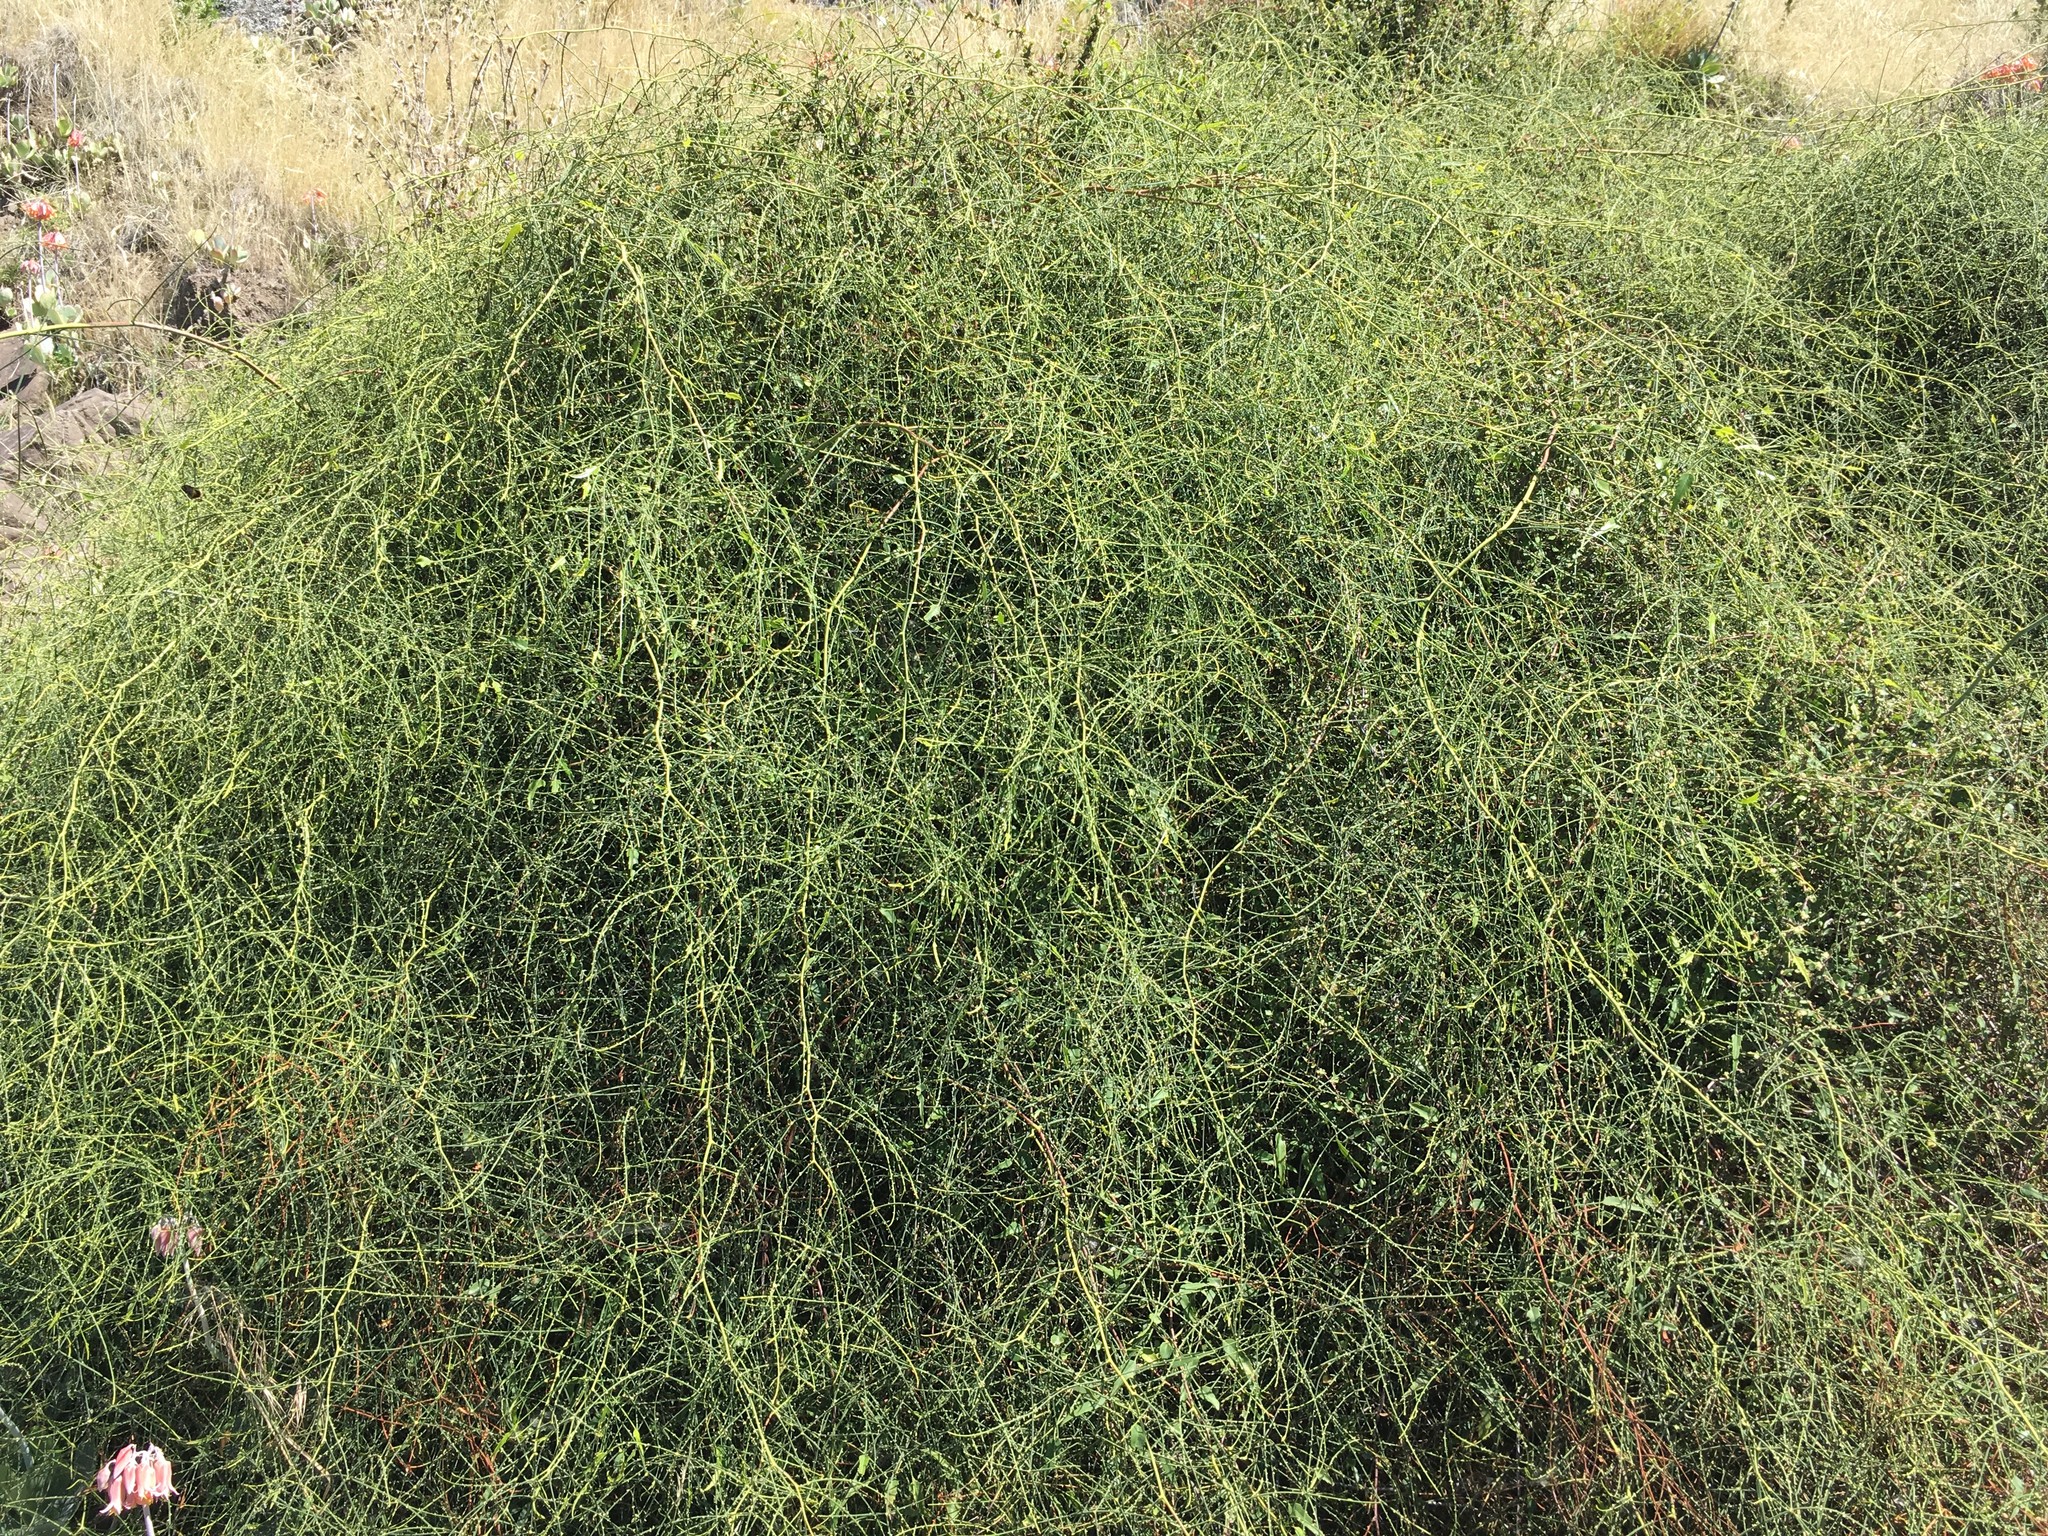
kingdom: Plantae
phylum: Tracheophyta
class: Magnoliopsida
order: Rosales
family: Rosaceae
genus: Rubus
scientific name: Rubus squarrosus
